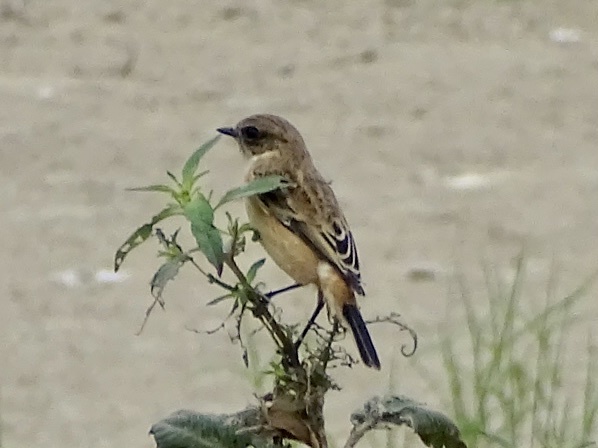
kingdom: Animalia
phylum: Chordata
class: Aves
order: Passeriformes
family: Muscicapidae
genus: Saxicola
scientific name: Saxicola stejnegeri
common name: Stejneger's stonechat
